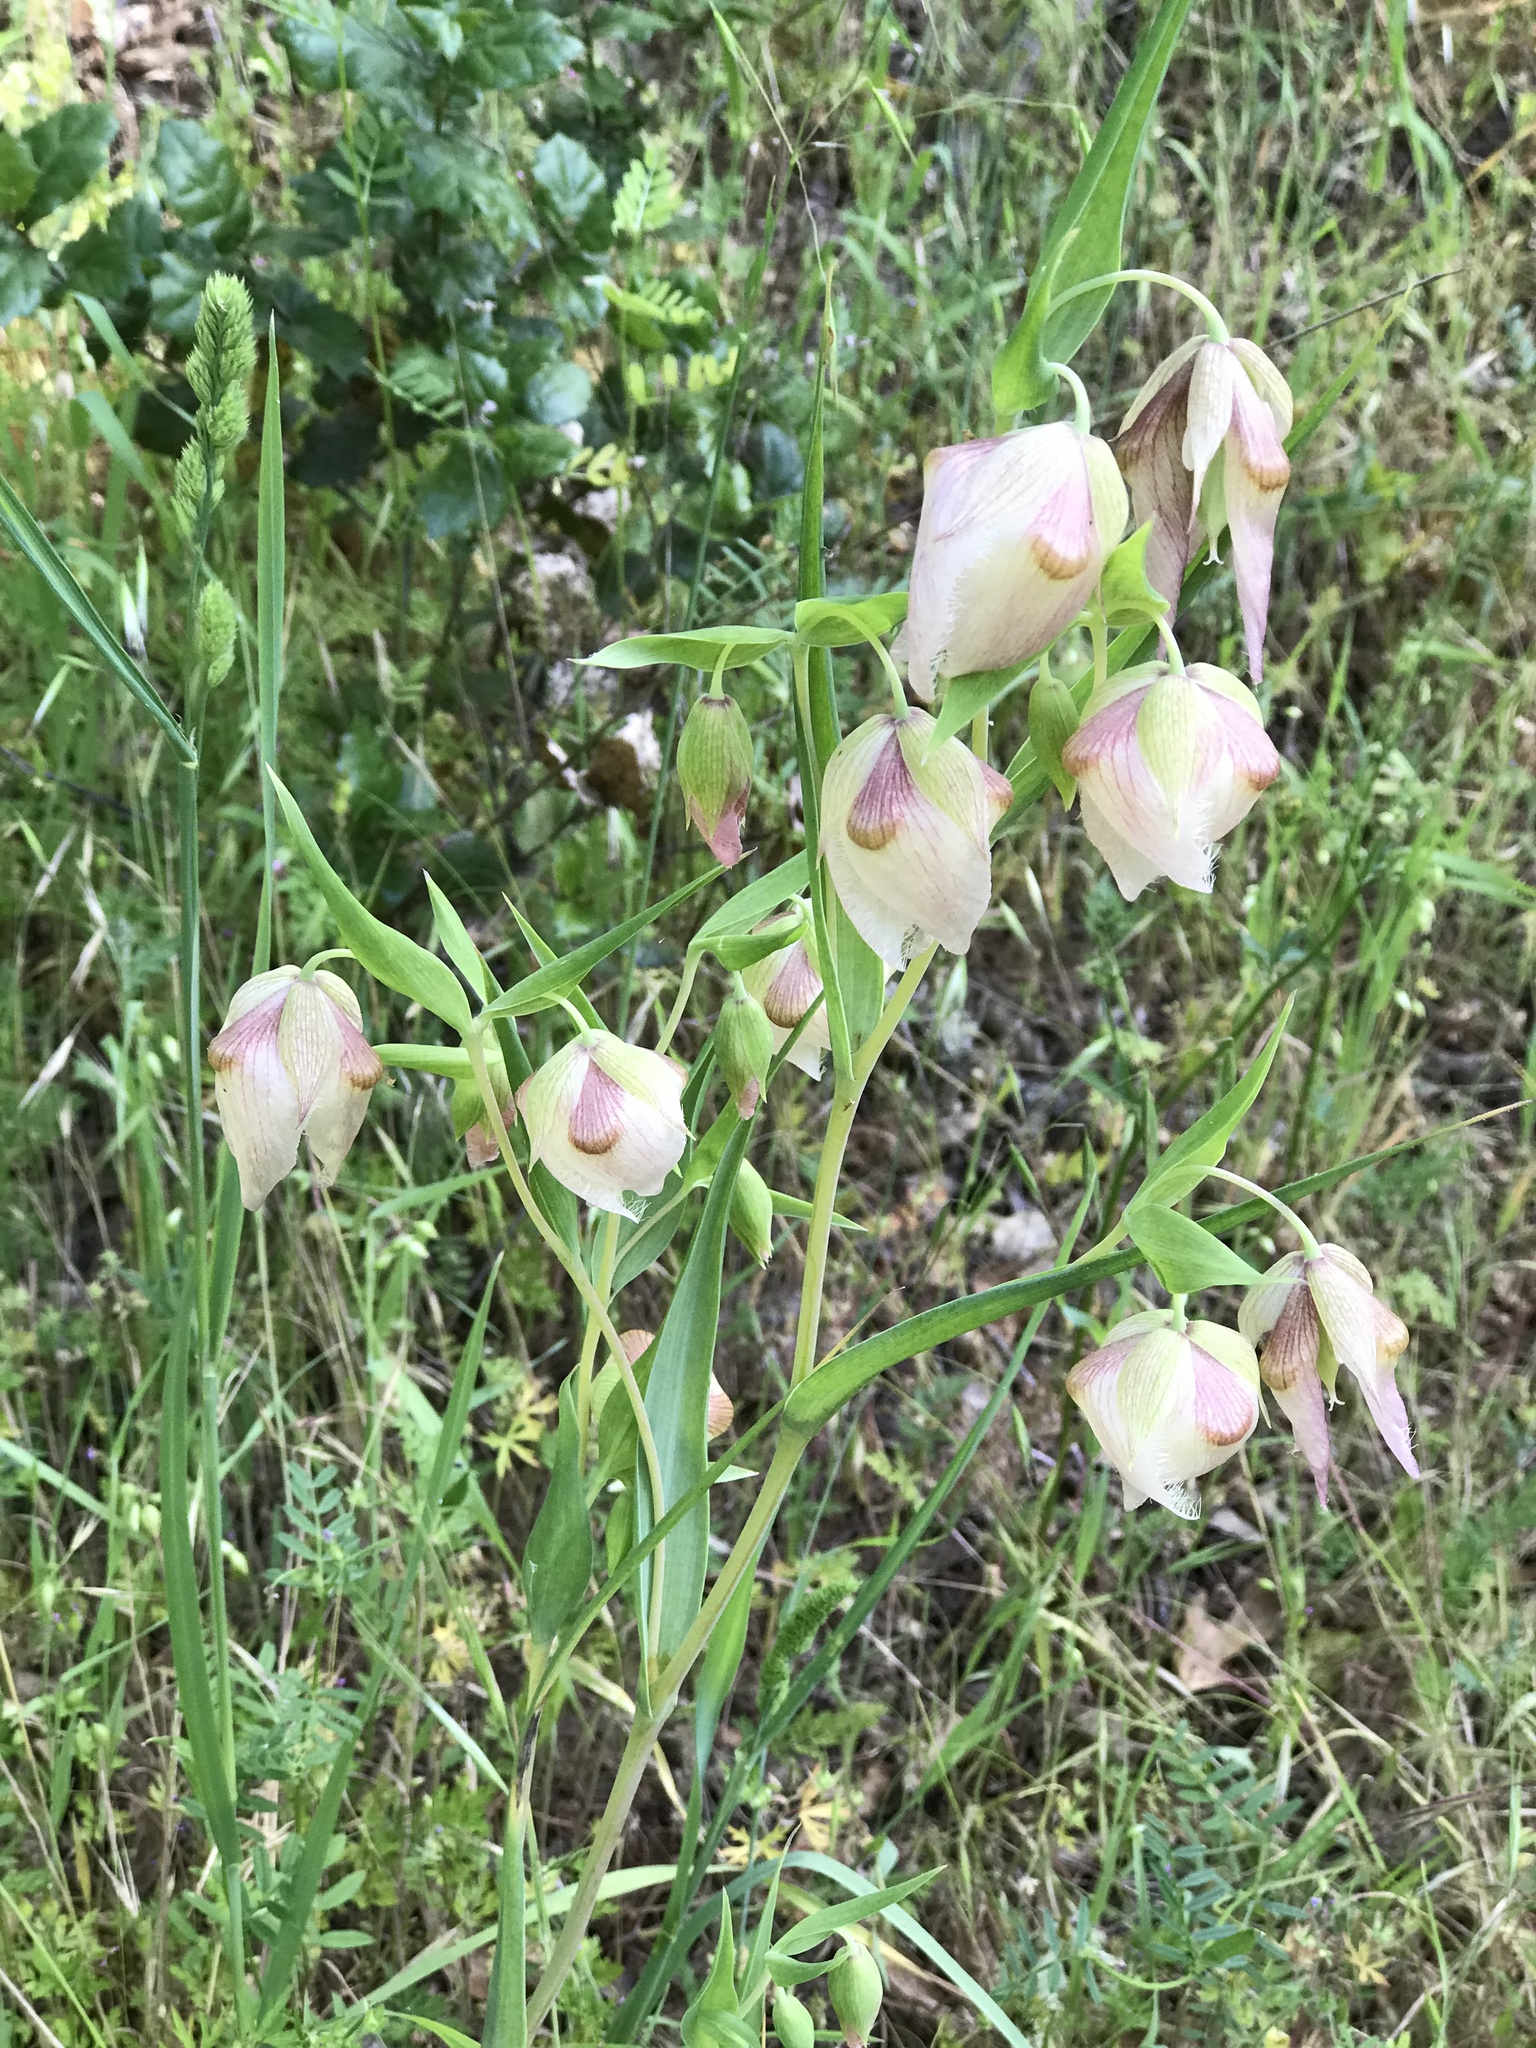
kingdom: Plantae
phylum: Tracheophyta
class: Liliopsida
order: Liliales
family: Liliaceae
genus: Calochortus
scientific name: Calochortus albus
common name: Fairy-lantern
